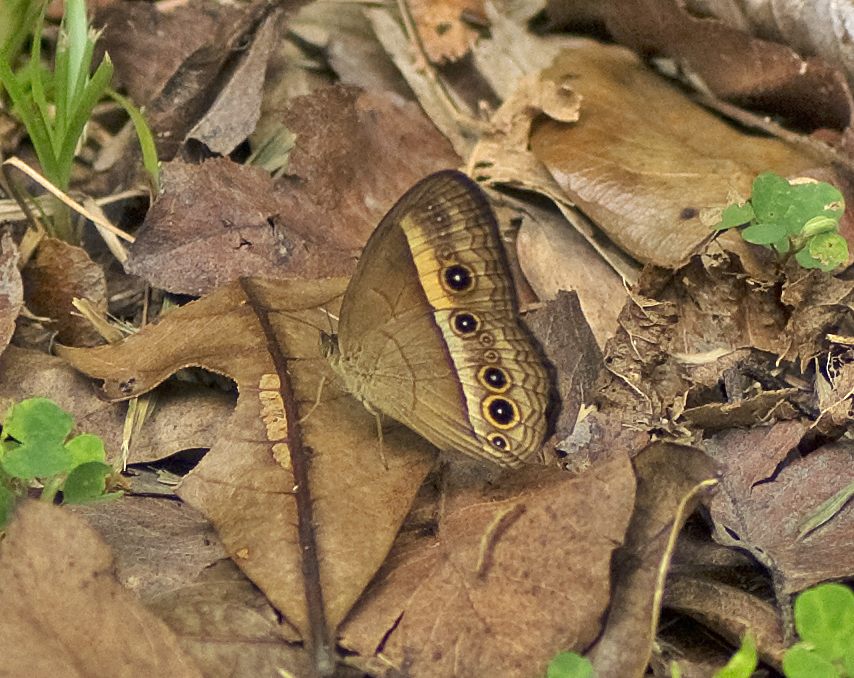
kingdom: Animalia
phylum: Arthropoda
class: Insecta
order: Lepidoptera
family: Nymphalidae
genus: Mycalesis
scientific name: Mycalesis terminus
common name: Orange bushbrown
